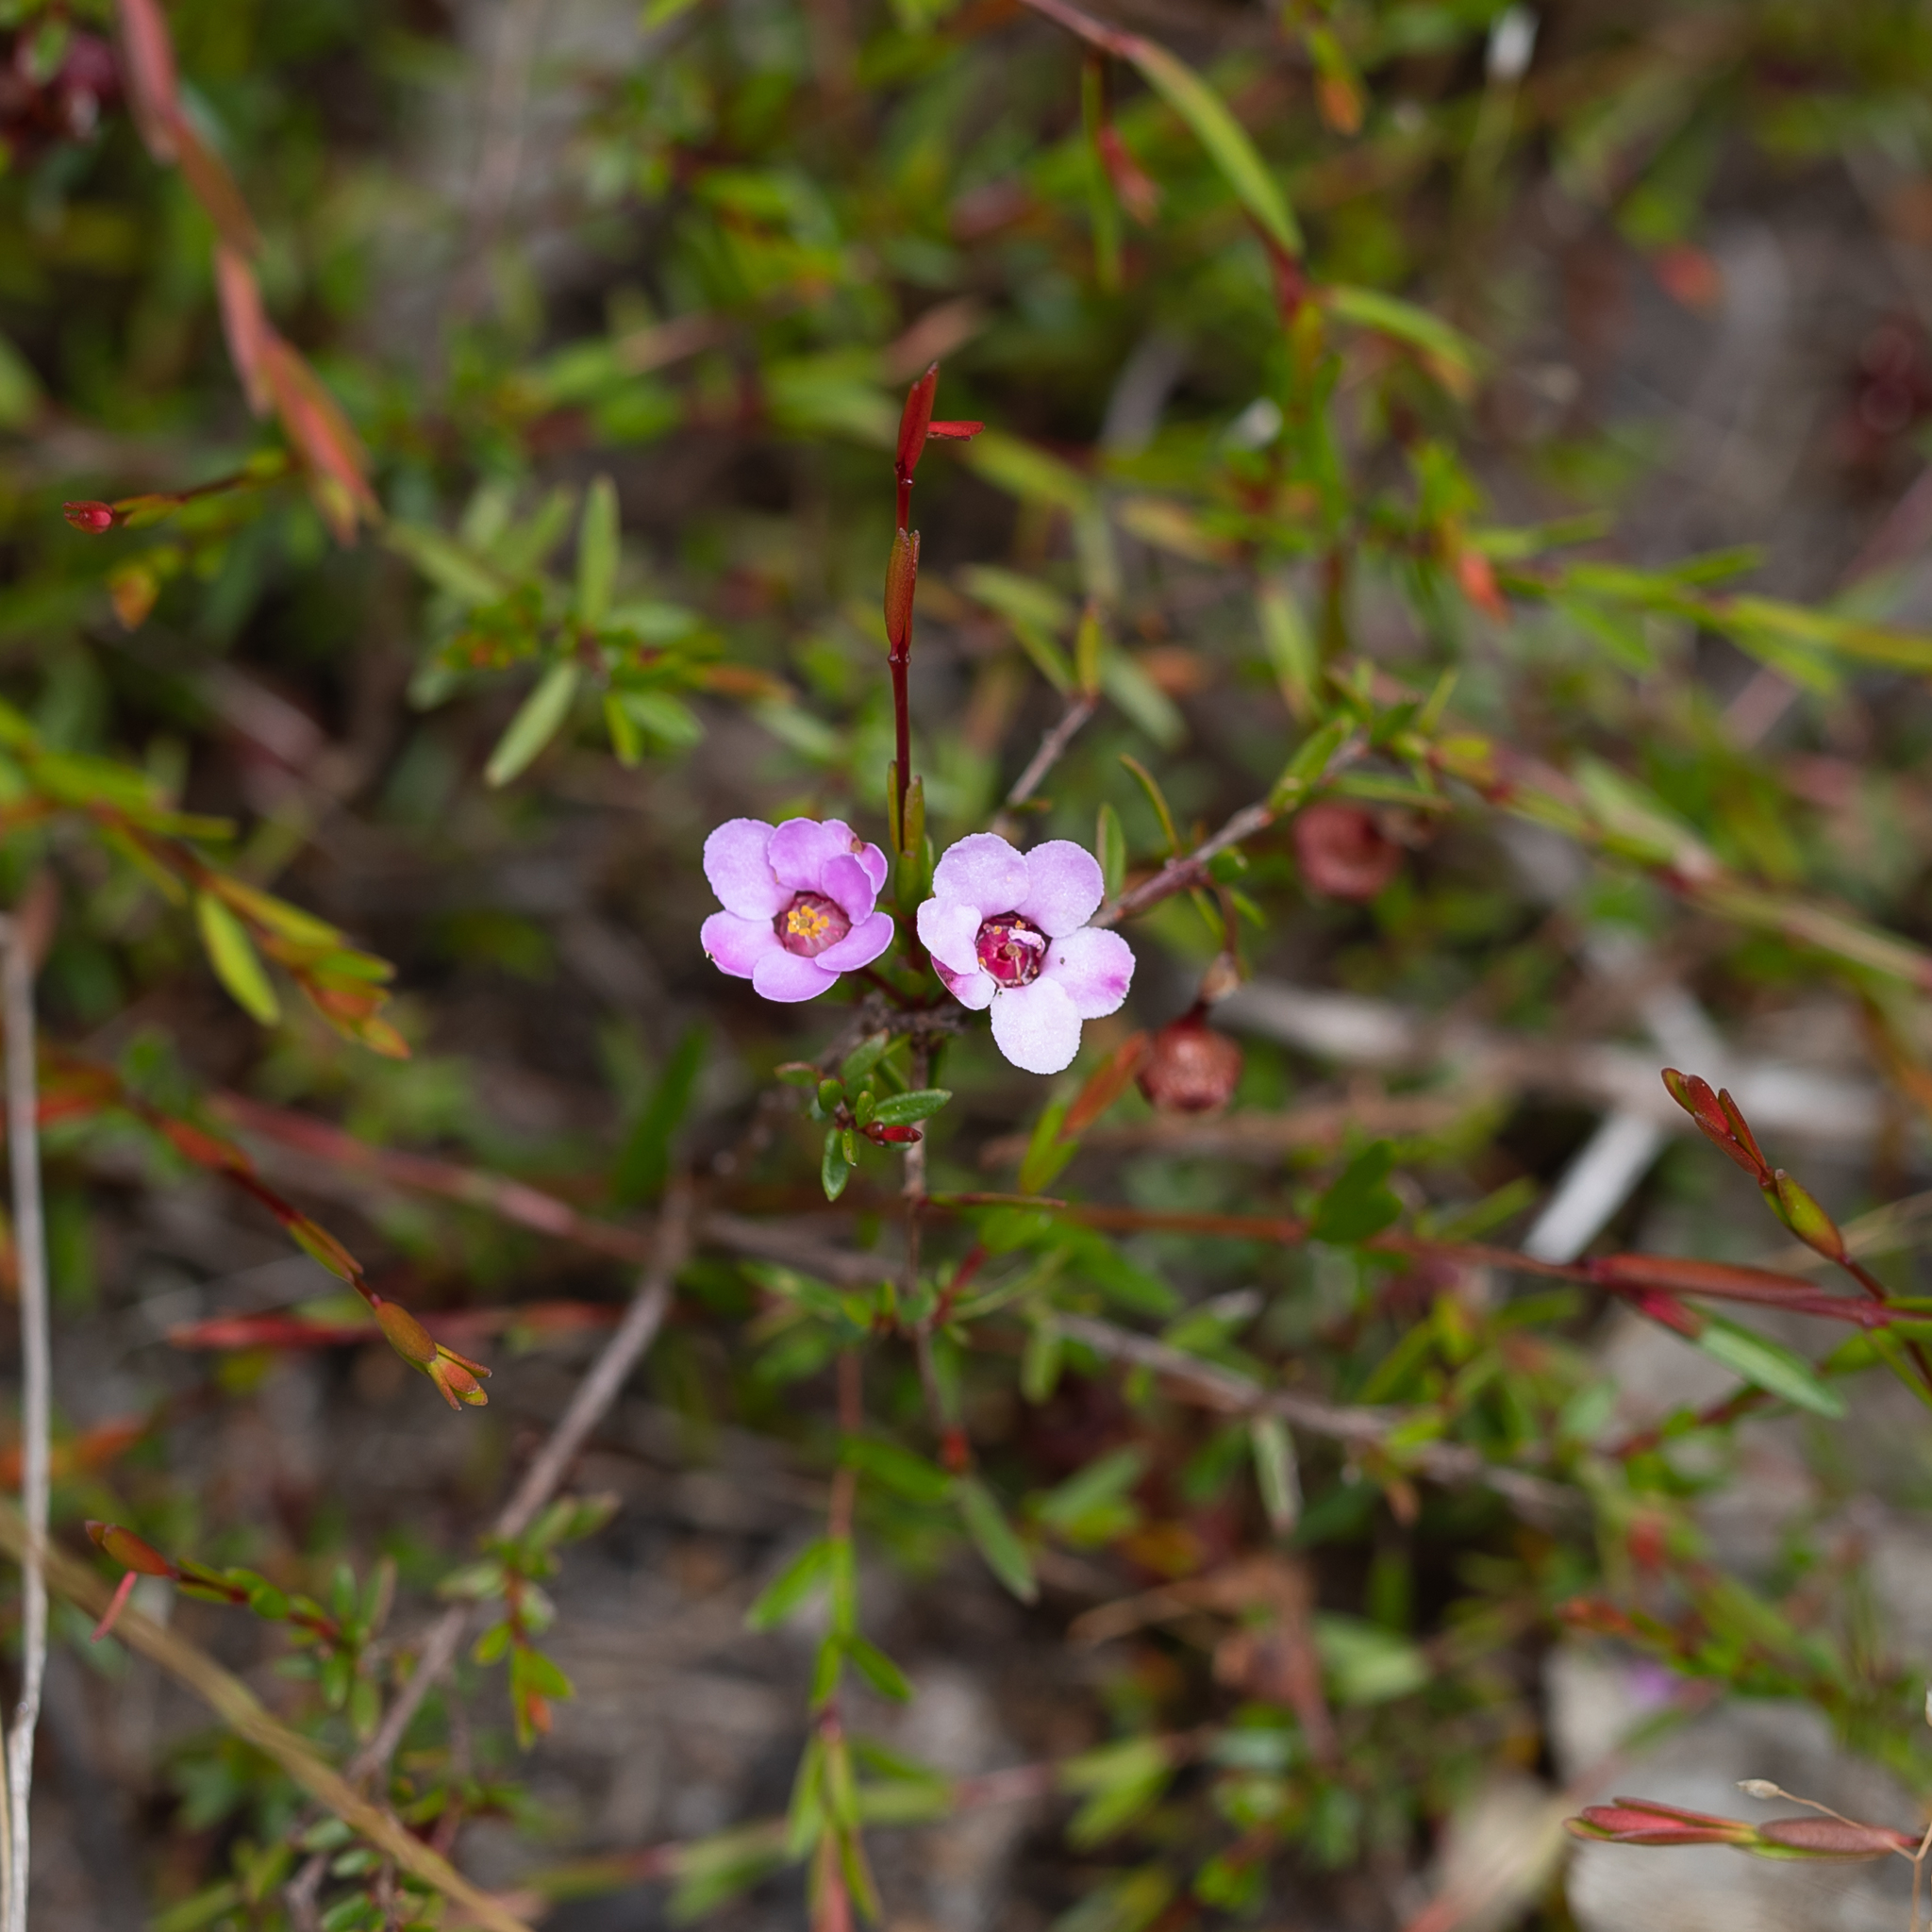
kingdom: Plantae
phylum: Tracheophyta
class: Magnoliopsida
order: Myrtales
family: Myrtaceae
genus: Euryomyrtus
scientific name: Euryomyrtus ramosissima
